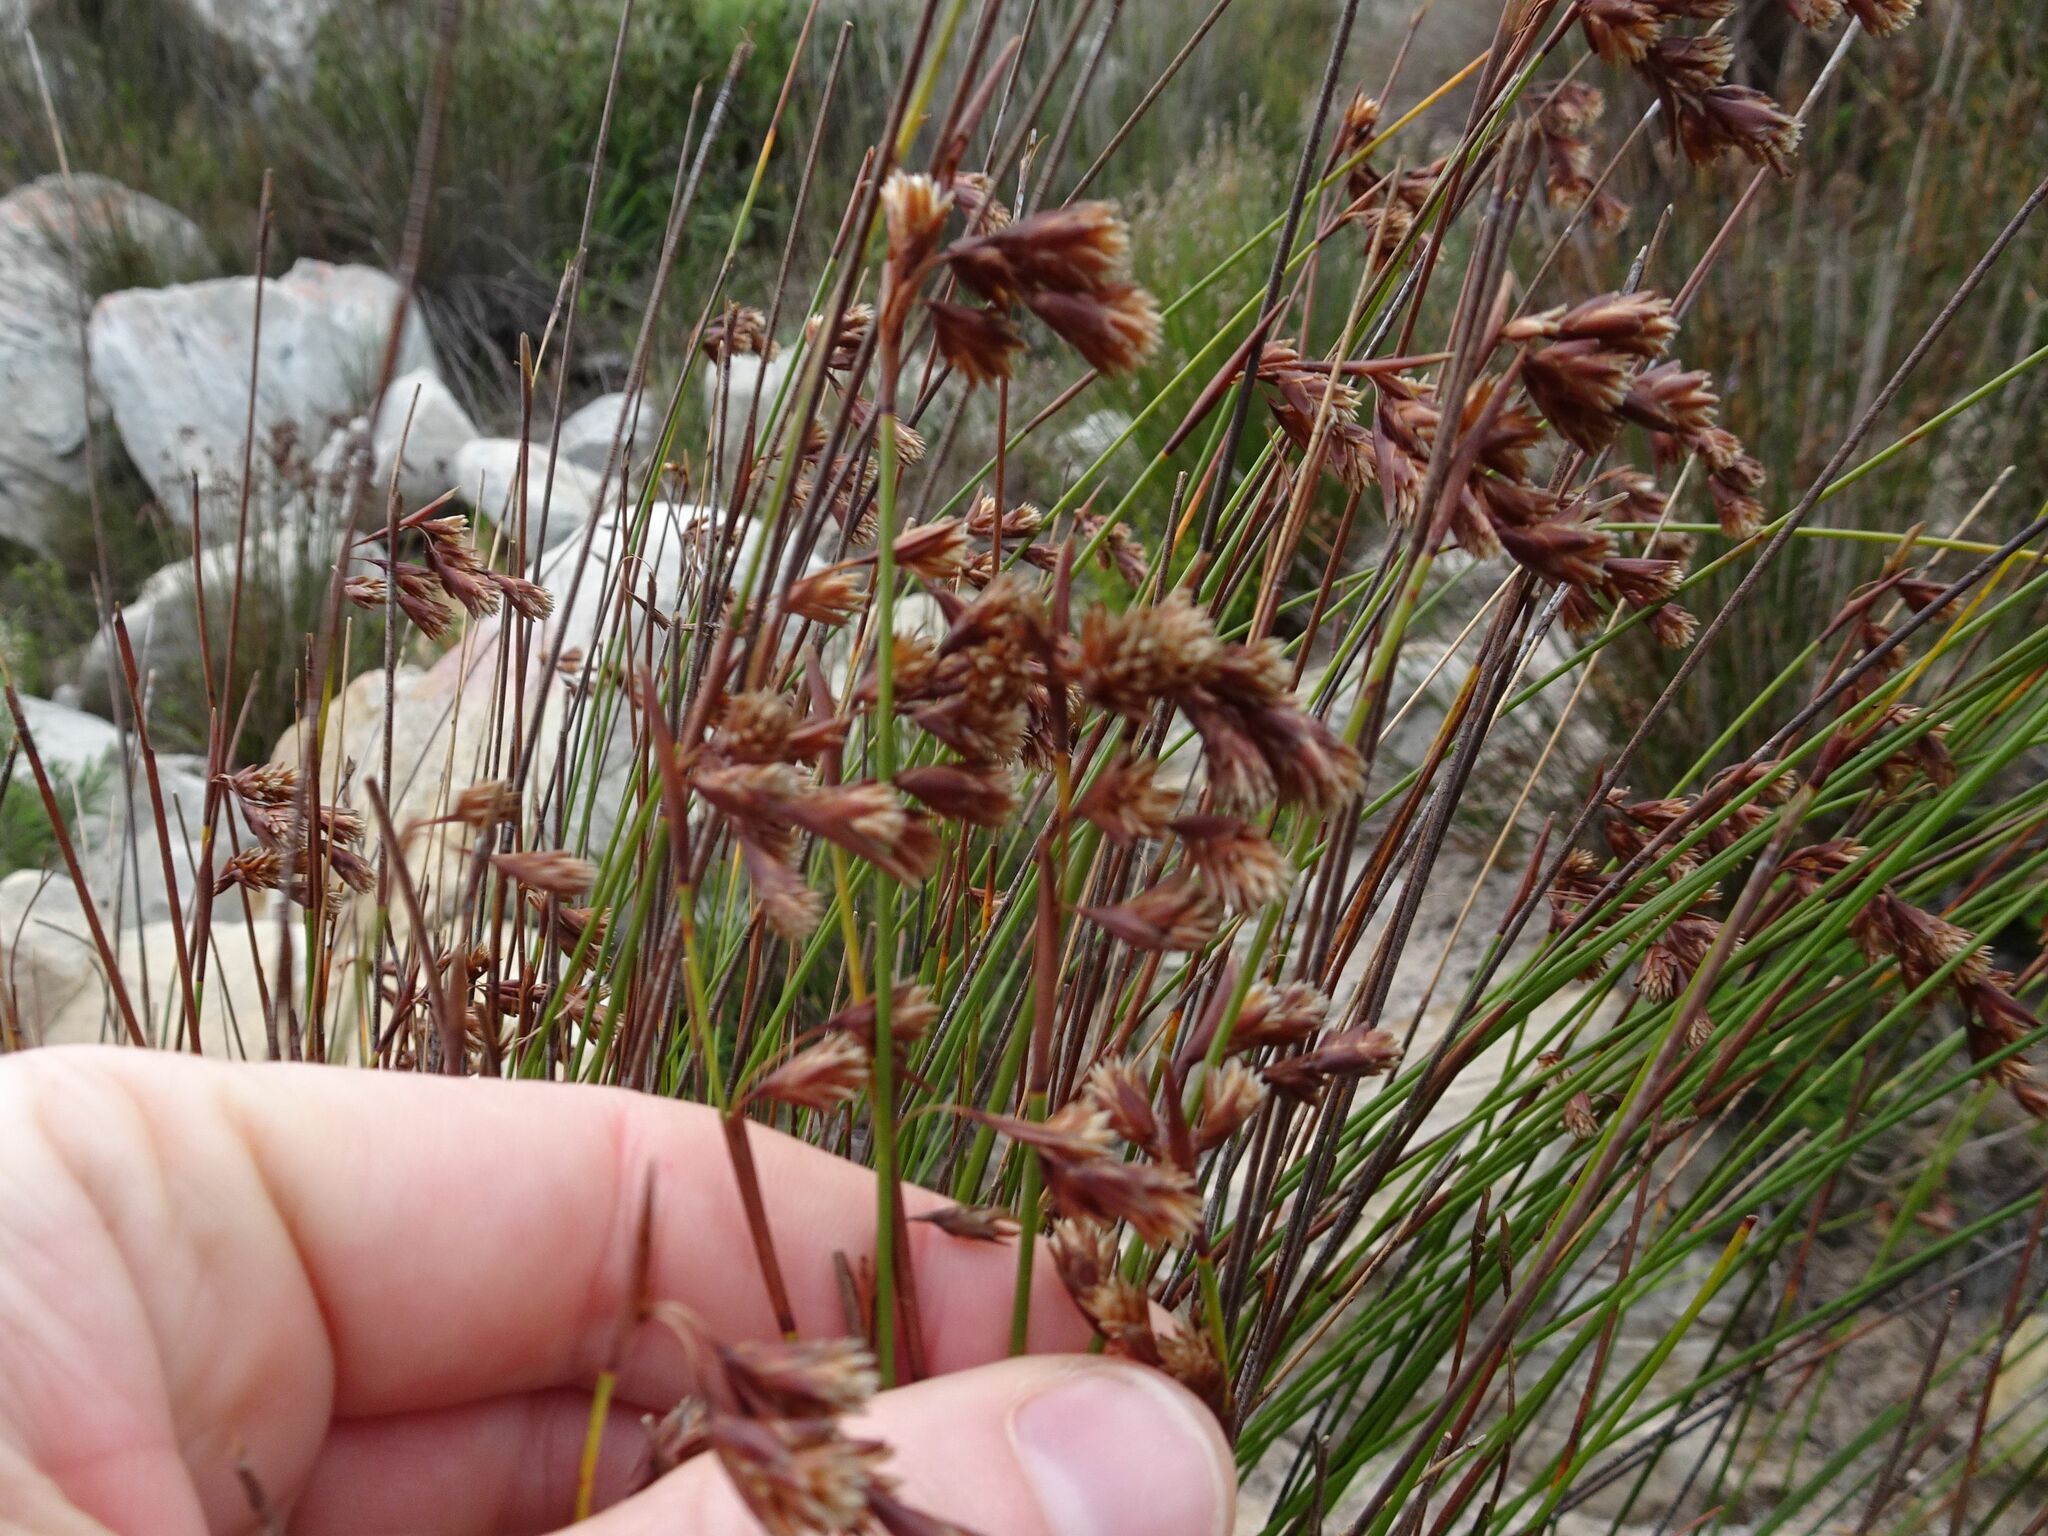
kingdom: Plantae
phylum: Tracheophyta
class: Liliopsida
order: Poales
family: Restionaceae
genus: Staberoha
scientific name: Staberoha cernua
